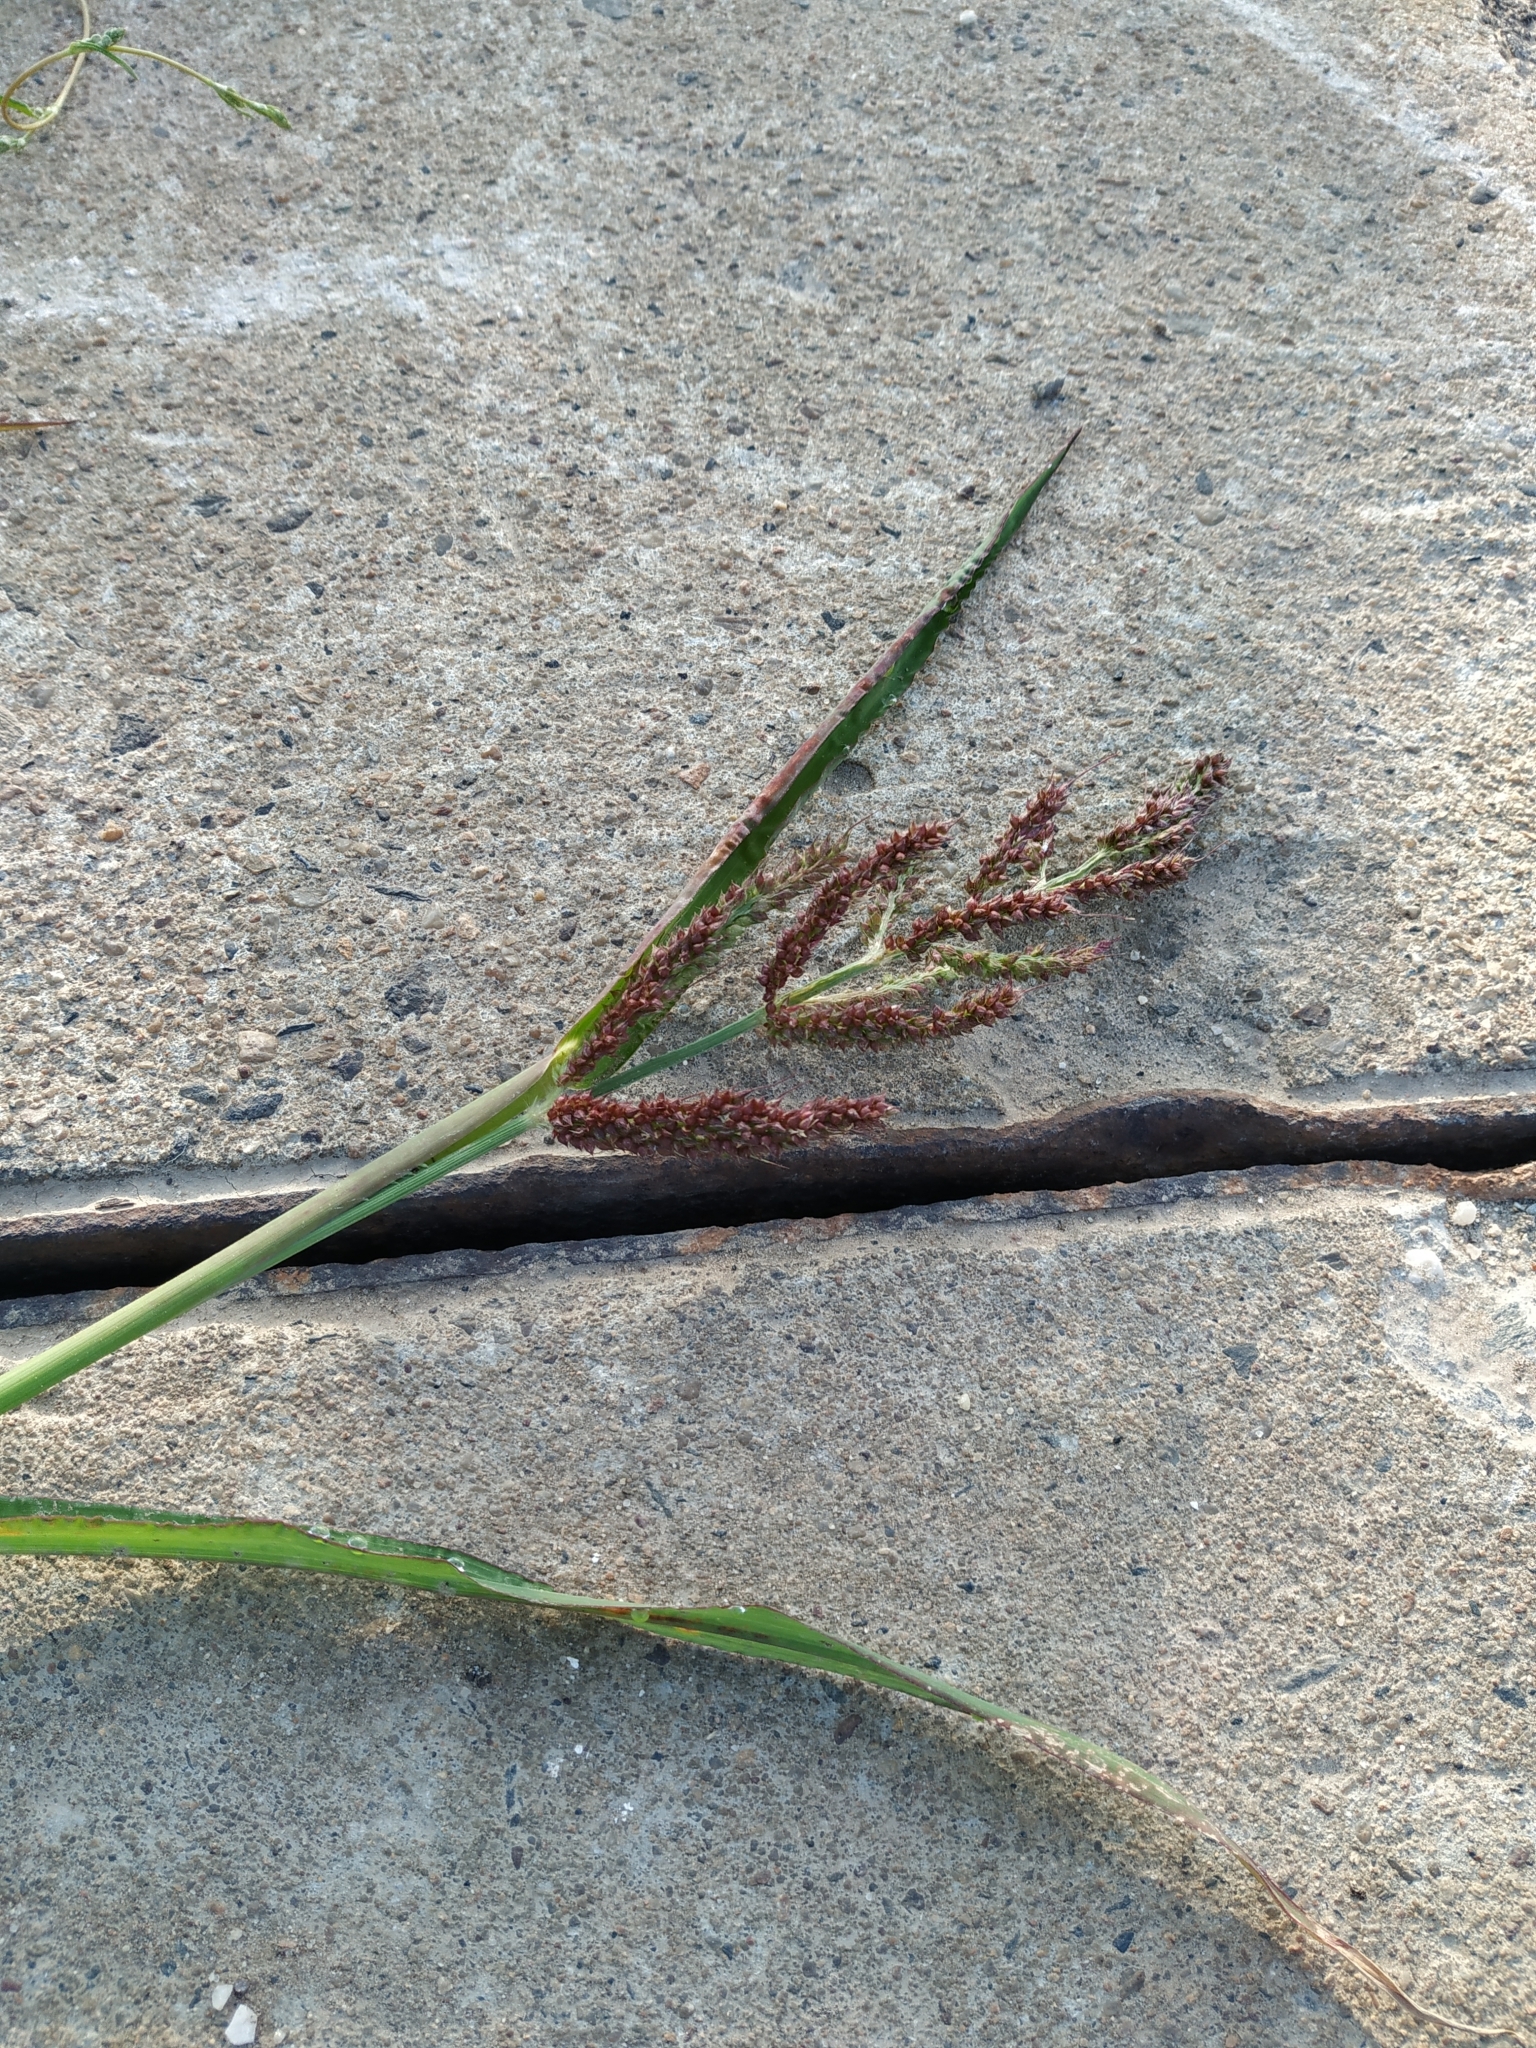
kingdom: Plantae
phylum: Tracheophyta
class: Liliopsida
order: Poales
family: Poaceae
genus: Echinochloa
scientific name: Echinochloa crus-galli
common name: Cockspur
